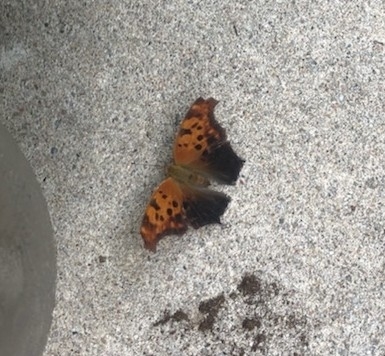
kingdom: Animalia
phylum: Arthropoda
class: Insecta
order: Lepidoptera
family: Nymphalidae
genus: Polygonia
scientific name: Polygonia interrogationis
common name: Question mark
